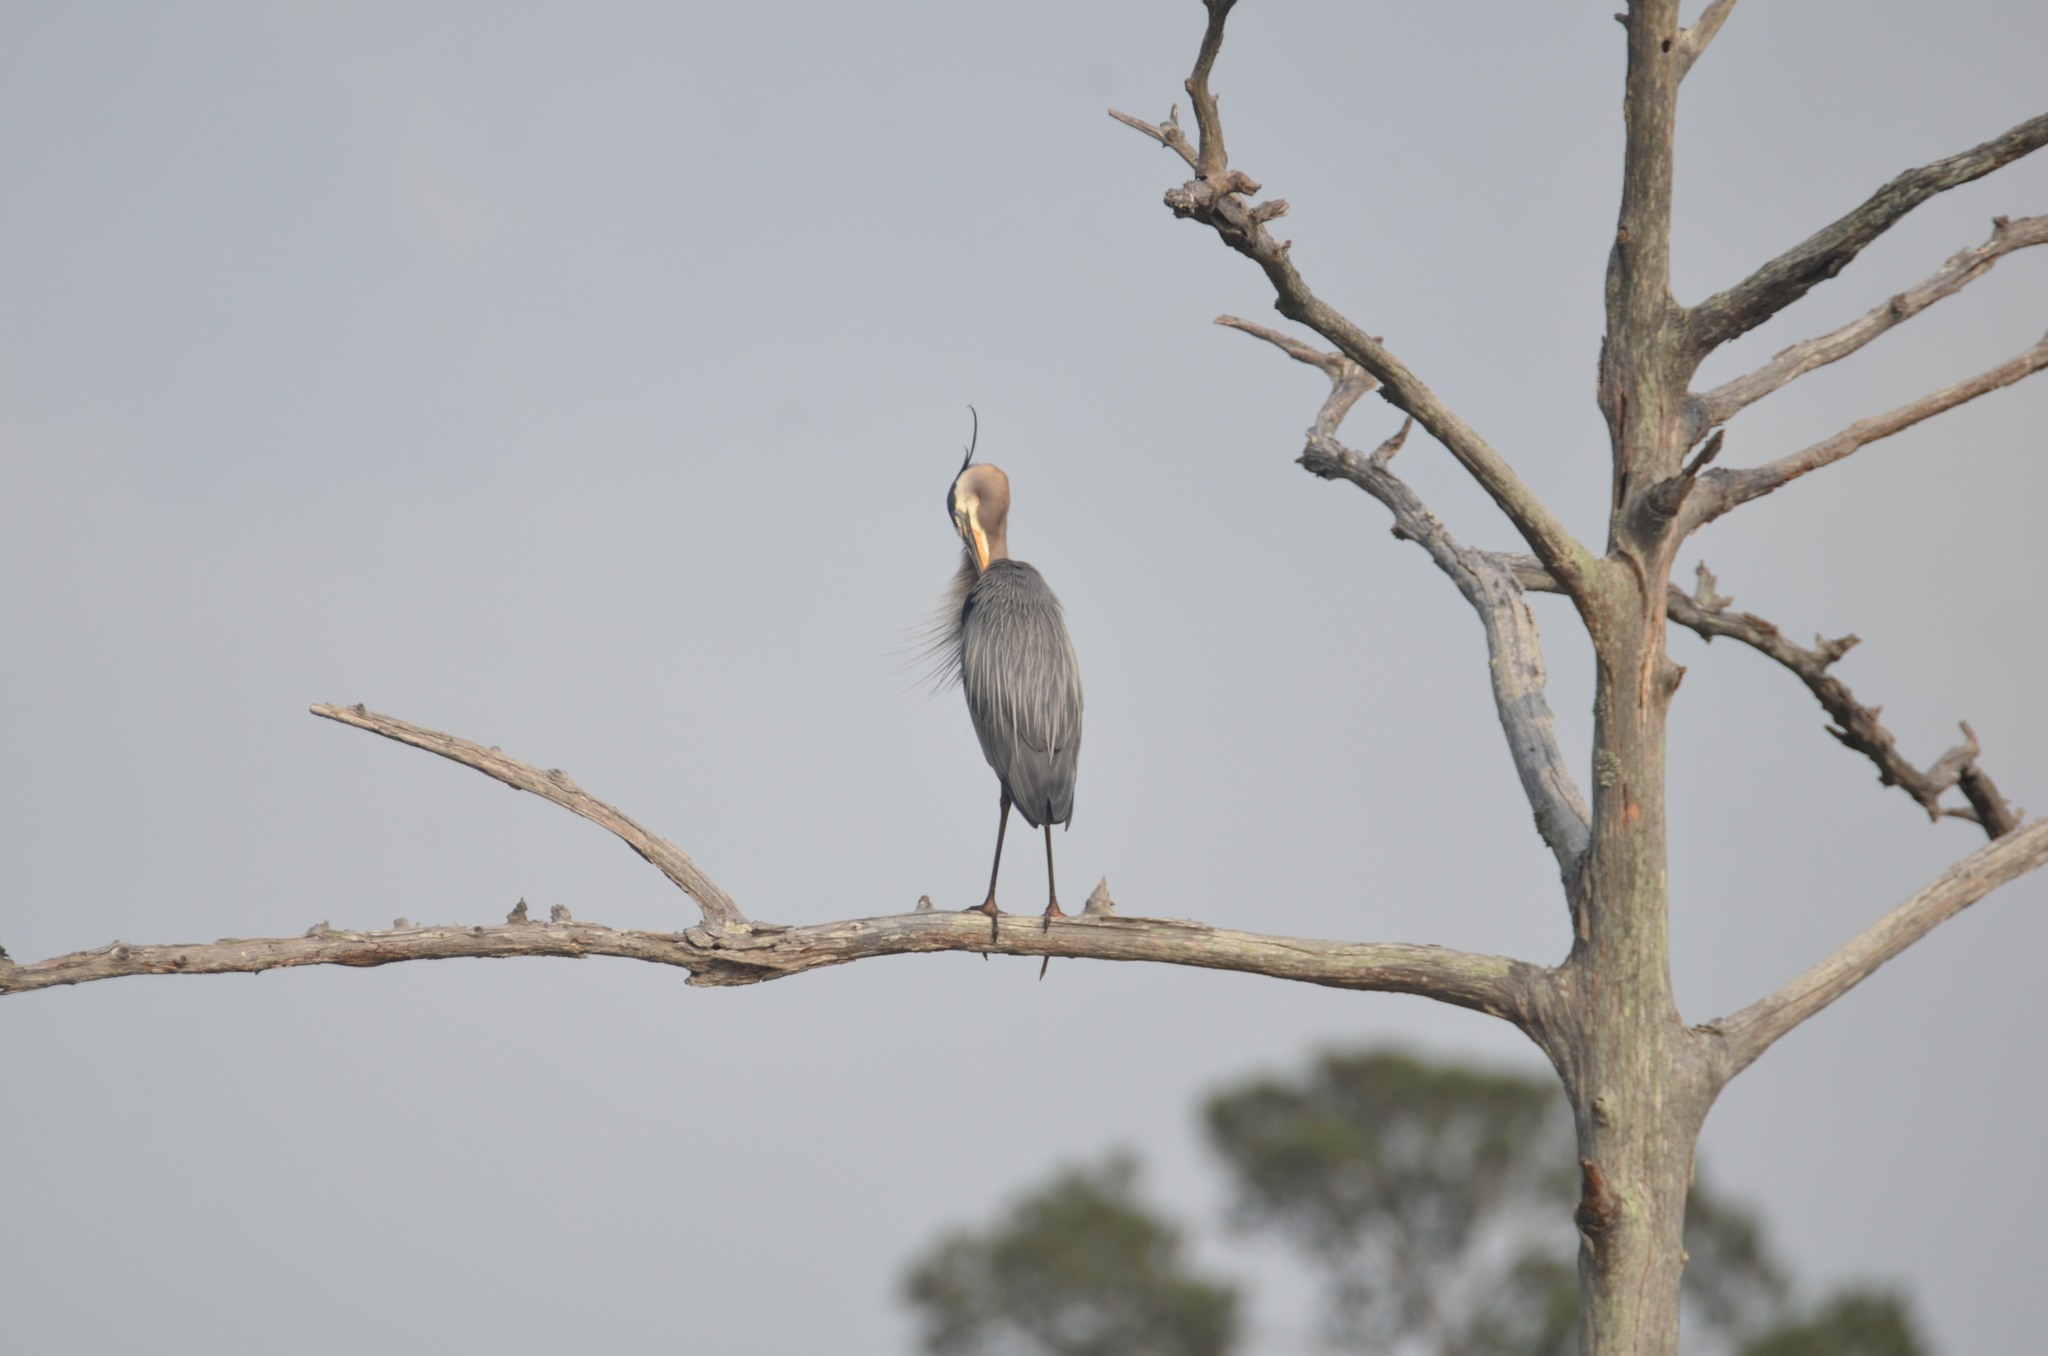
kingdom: Animalia
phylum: Chordata
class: Aves
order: Pelecaniformes
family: Ardeidae
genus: Ardea
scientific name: Ardea herodias
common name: Great blue heron
